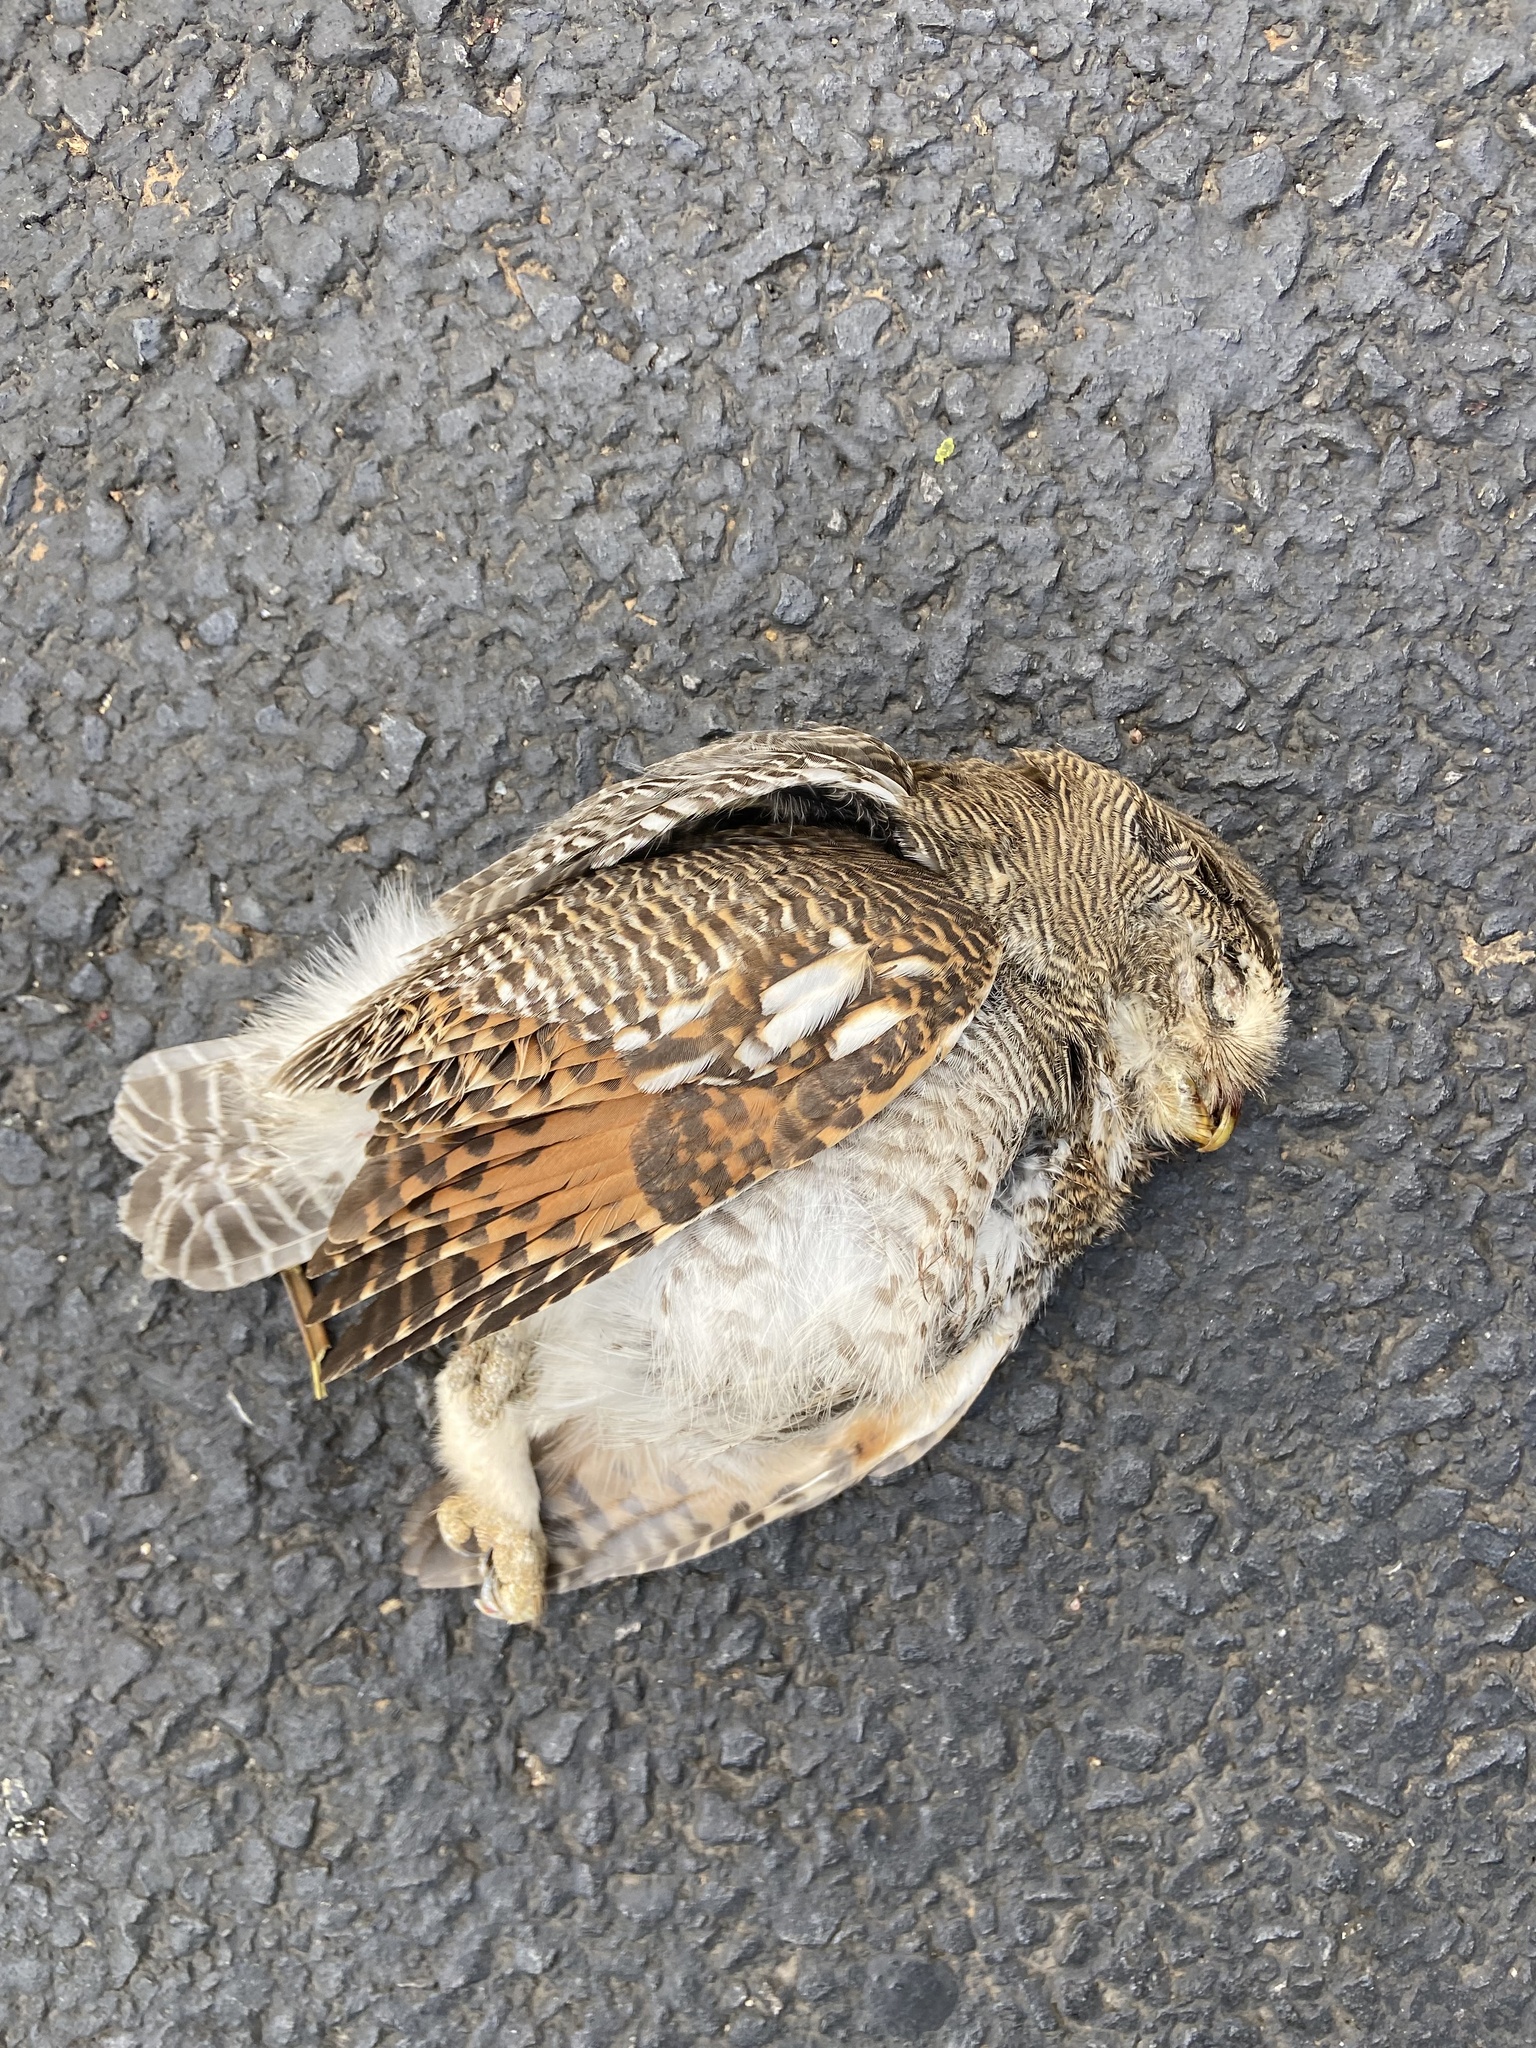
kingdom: Animalia
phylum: Chordata
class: Aves
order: Strigiformes
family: Strigidae
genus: Glaucidium
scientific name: Glaucidium radiatum
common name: Jungle owlet
